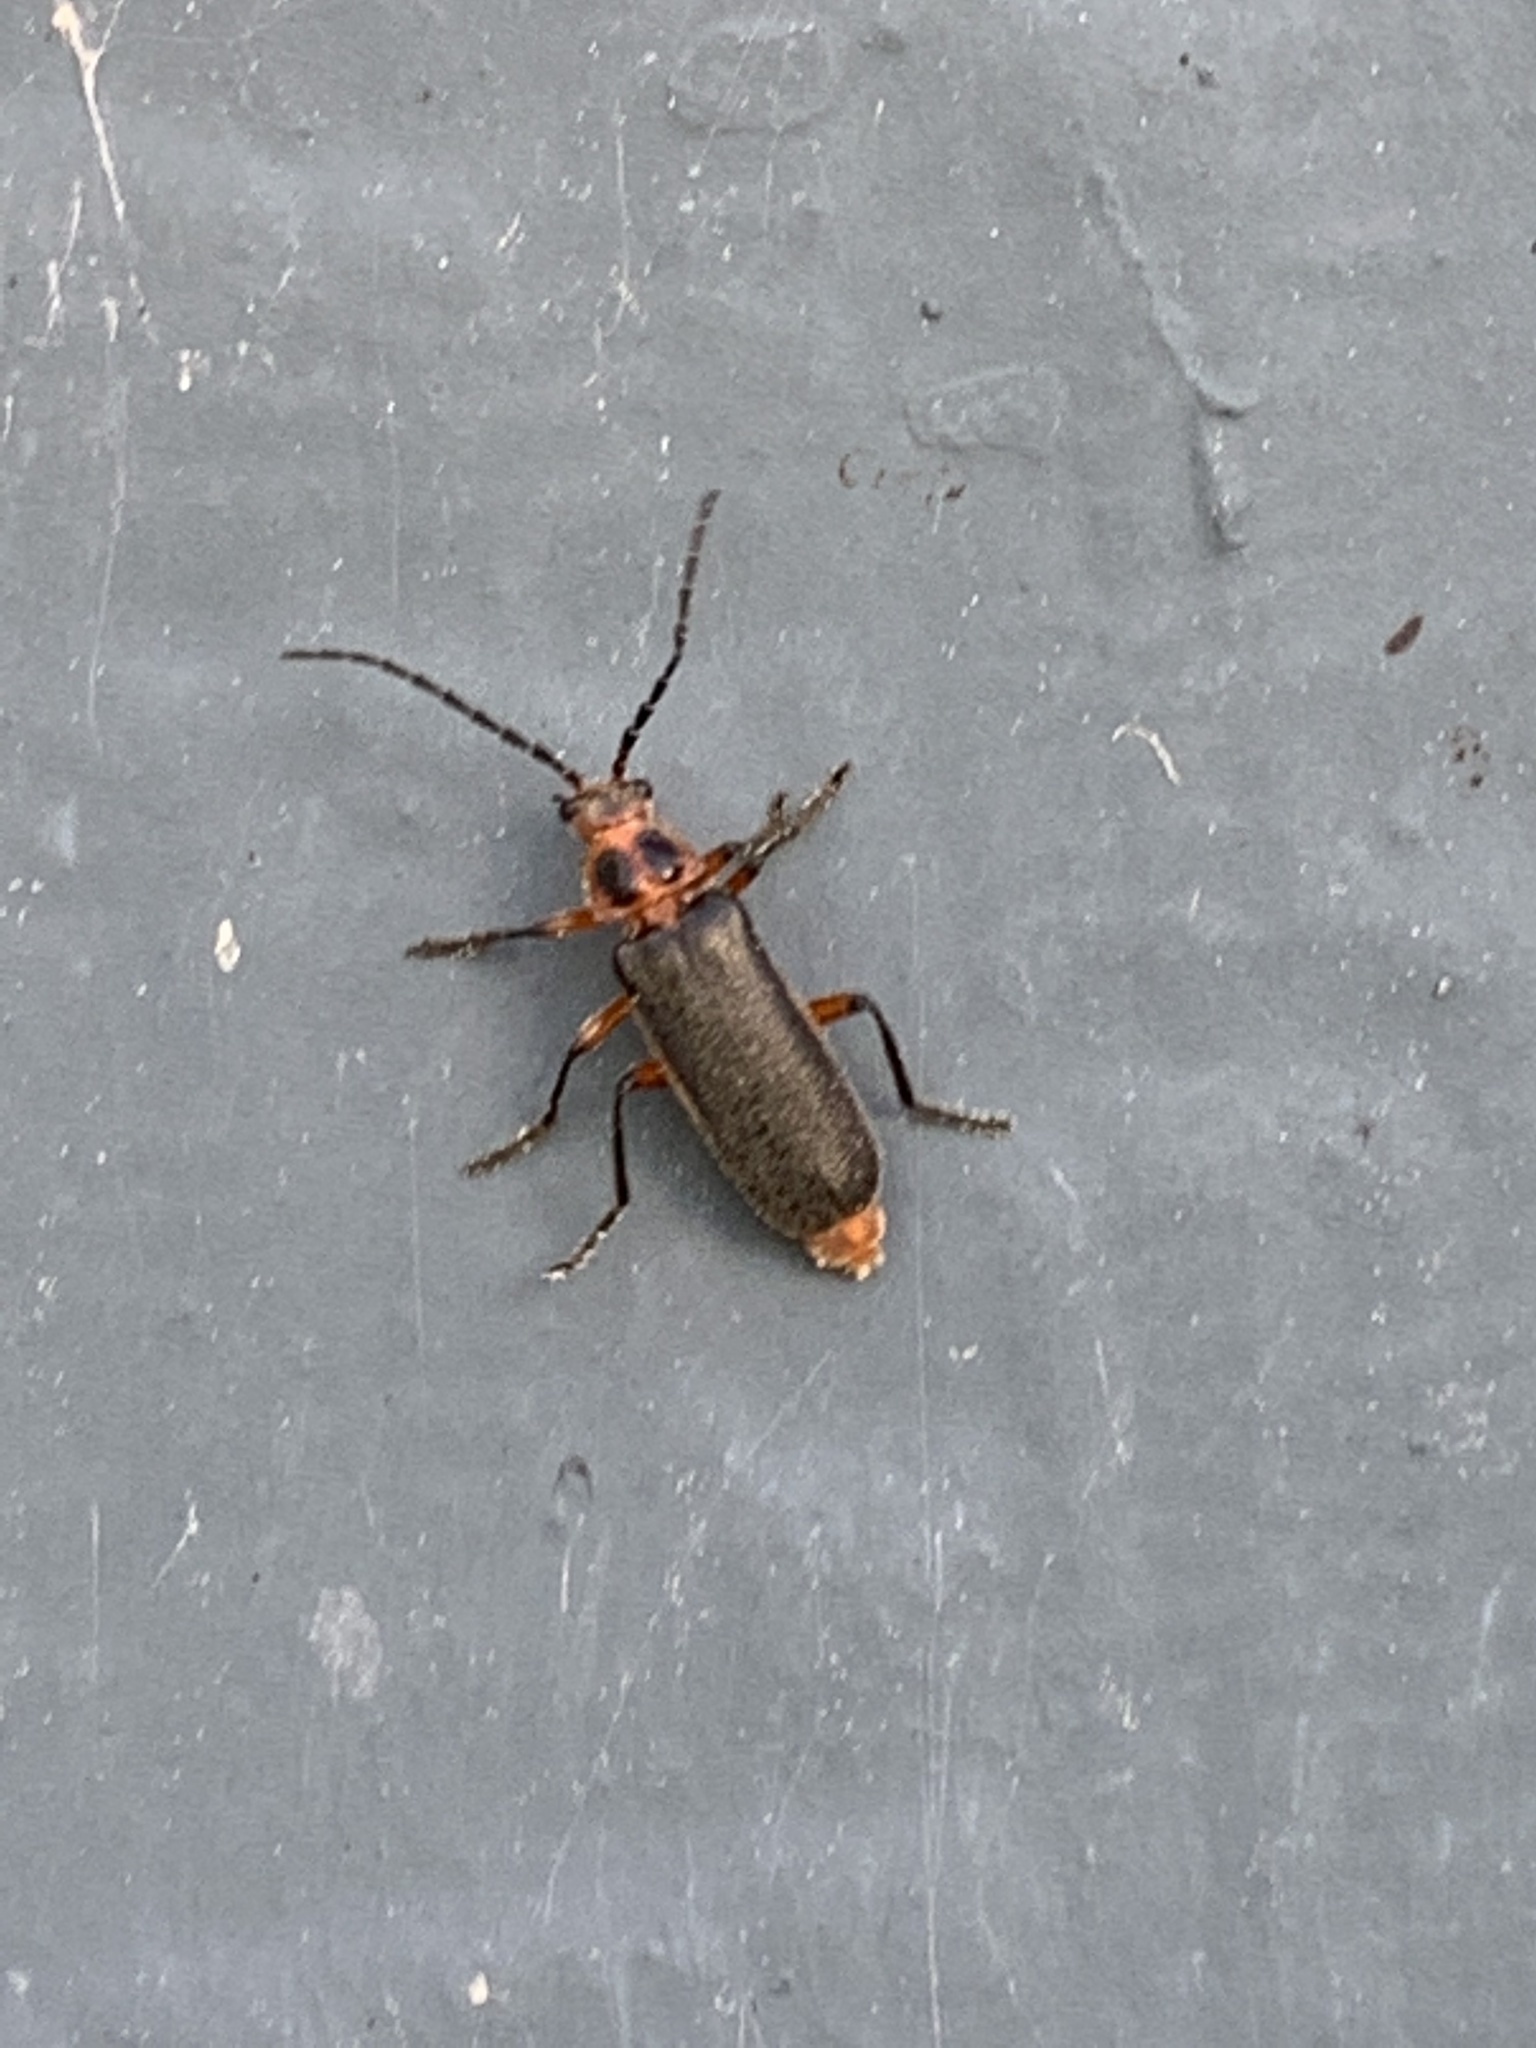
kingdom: Animalia
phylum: Arthropoda
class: Insecta
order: Coleoptera
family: Cantharidae
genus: Atalantycha
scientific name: Atalantycha bilineata
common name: Two-lined leatherwing
